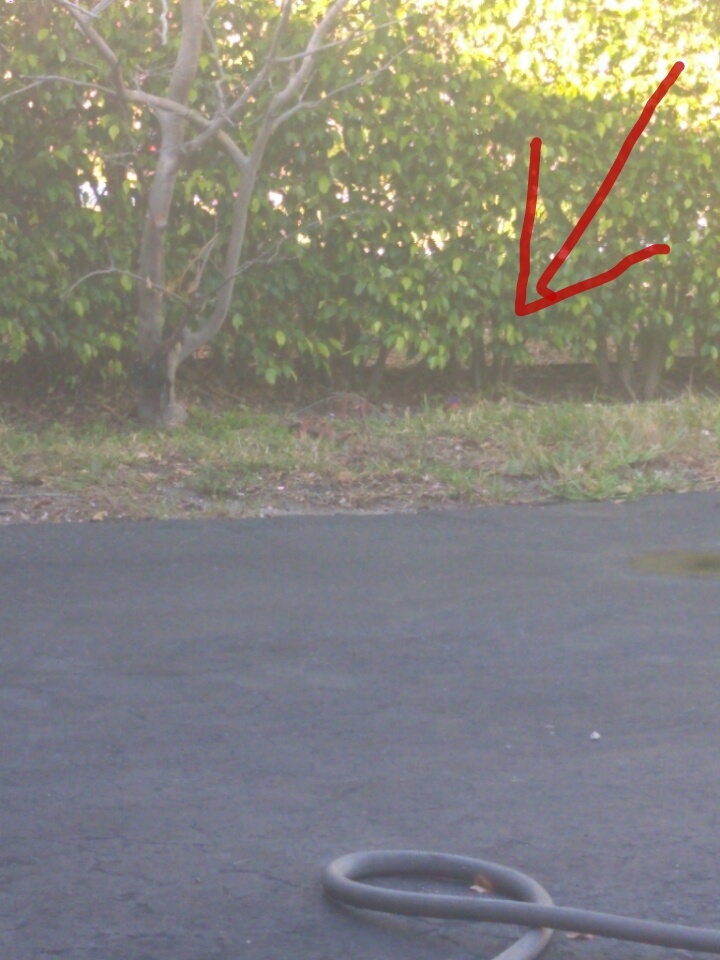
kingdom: Animalia
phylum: Chordata
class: Aves
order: Passeriformes
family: Cardinalidae
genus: Passerina
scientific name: Passerina ciris
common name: Painted bunting
